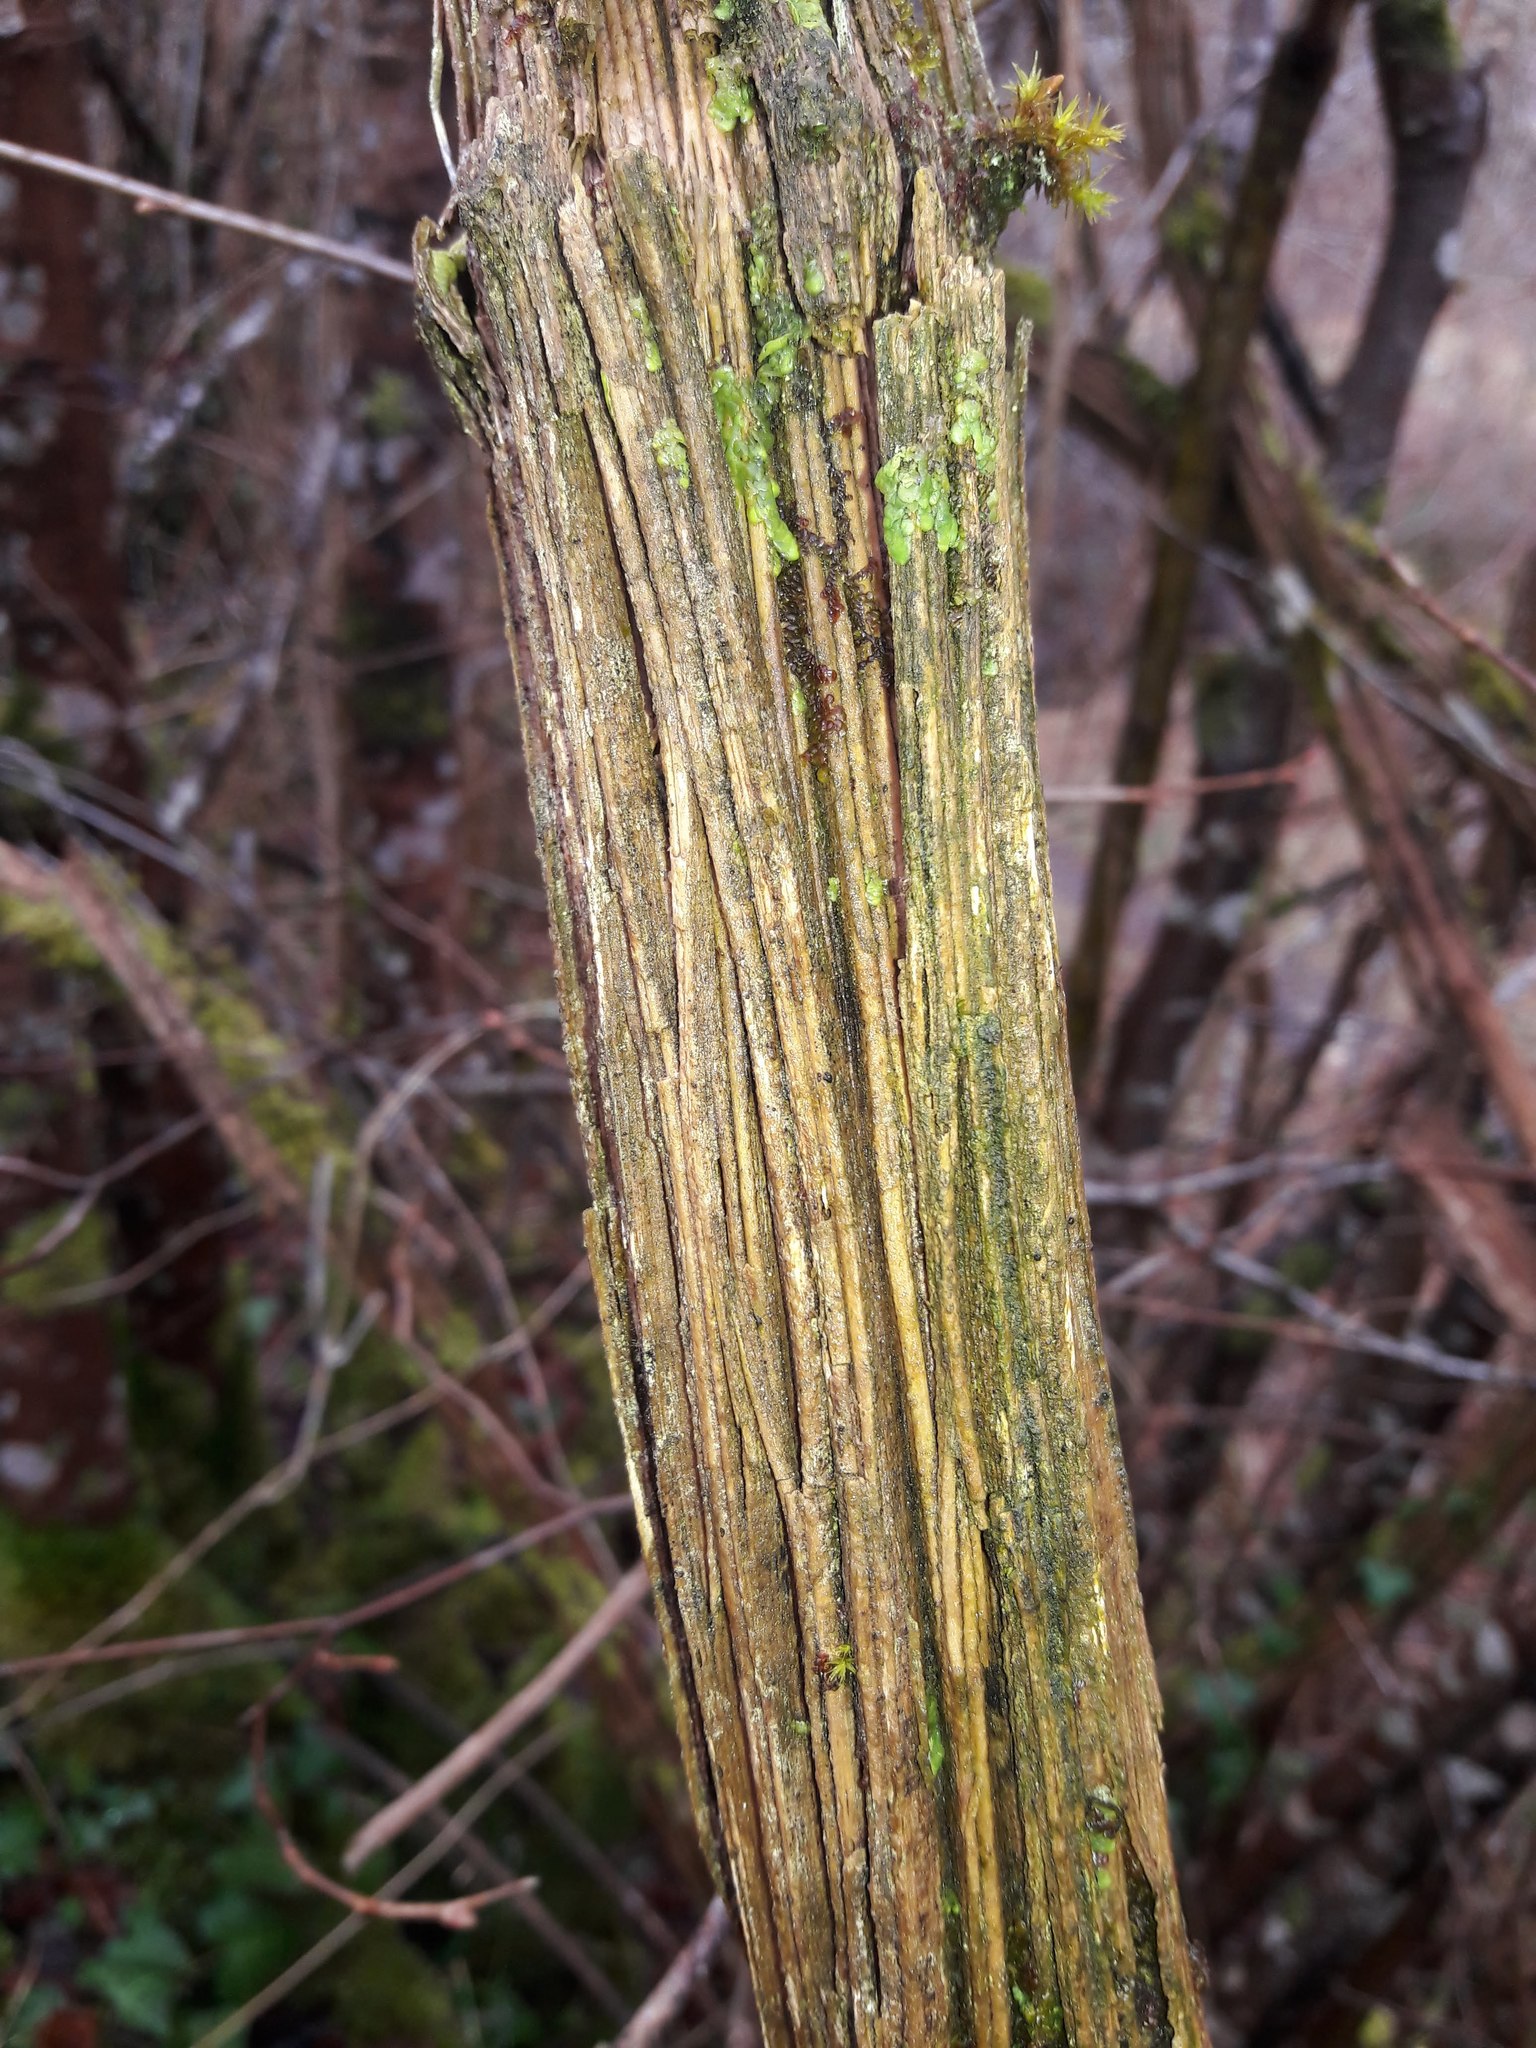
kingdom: Plantae
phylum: Tracheophyta
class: Magnoliopsida
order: Ranunculales
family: Ranunculaceae
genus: Clematis
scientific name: Clematis vitalba
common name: Evergreen clematis
